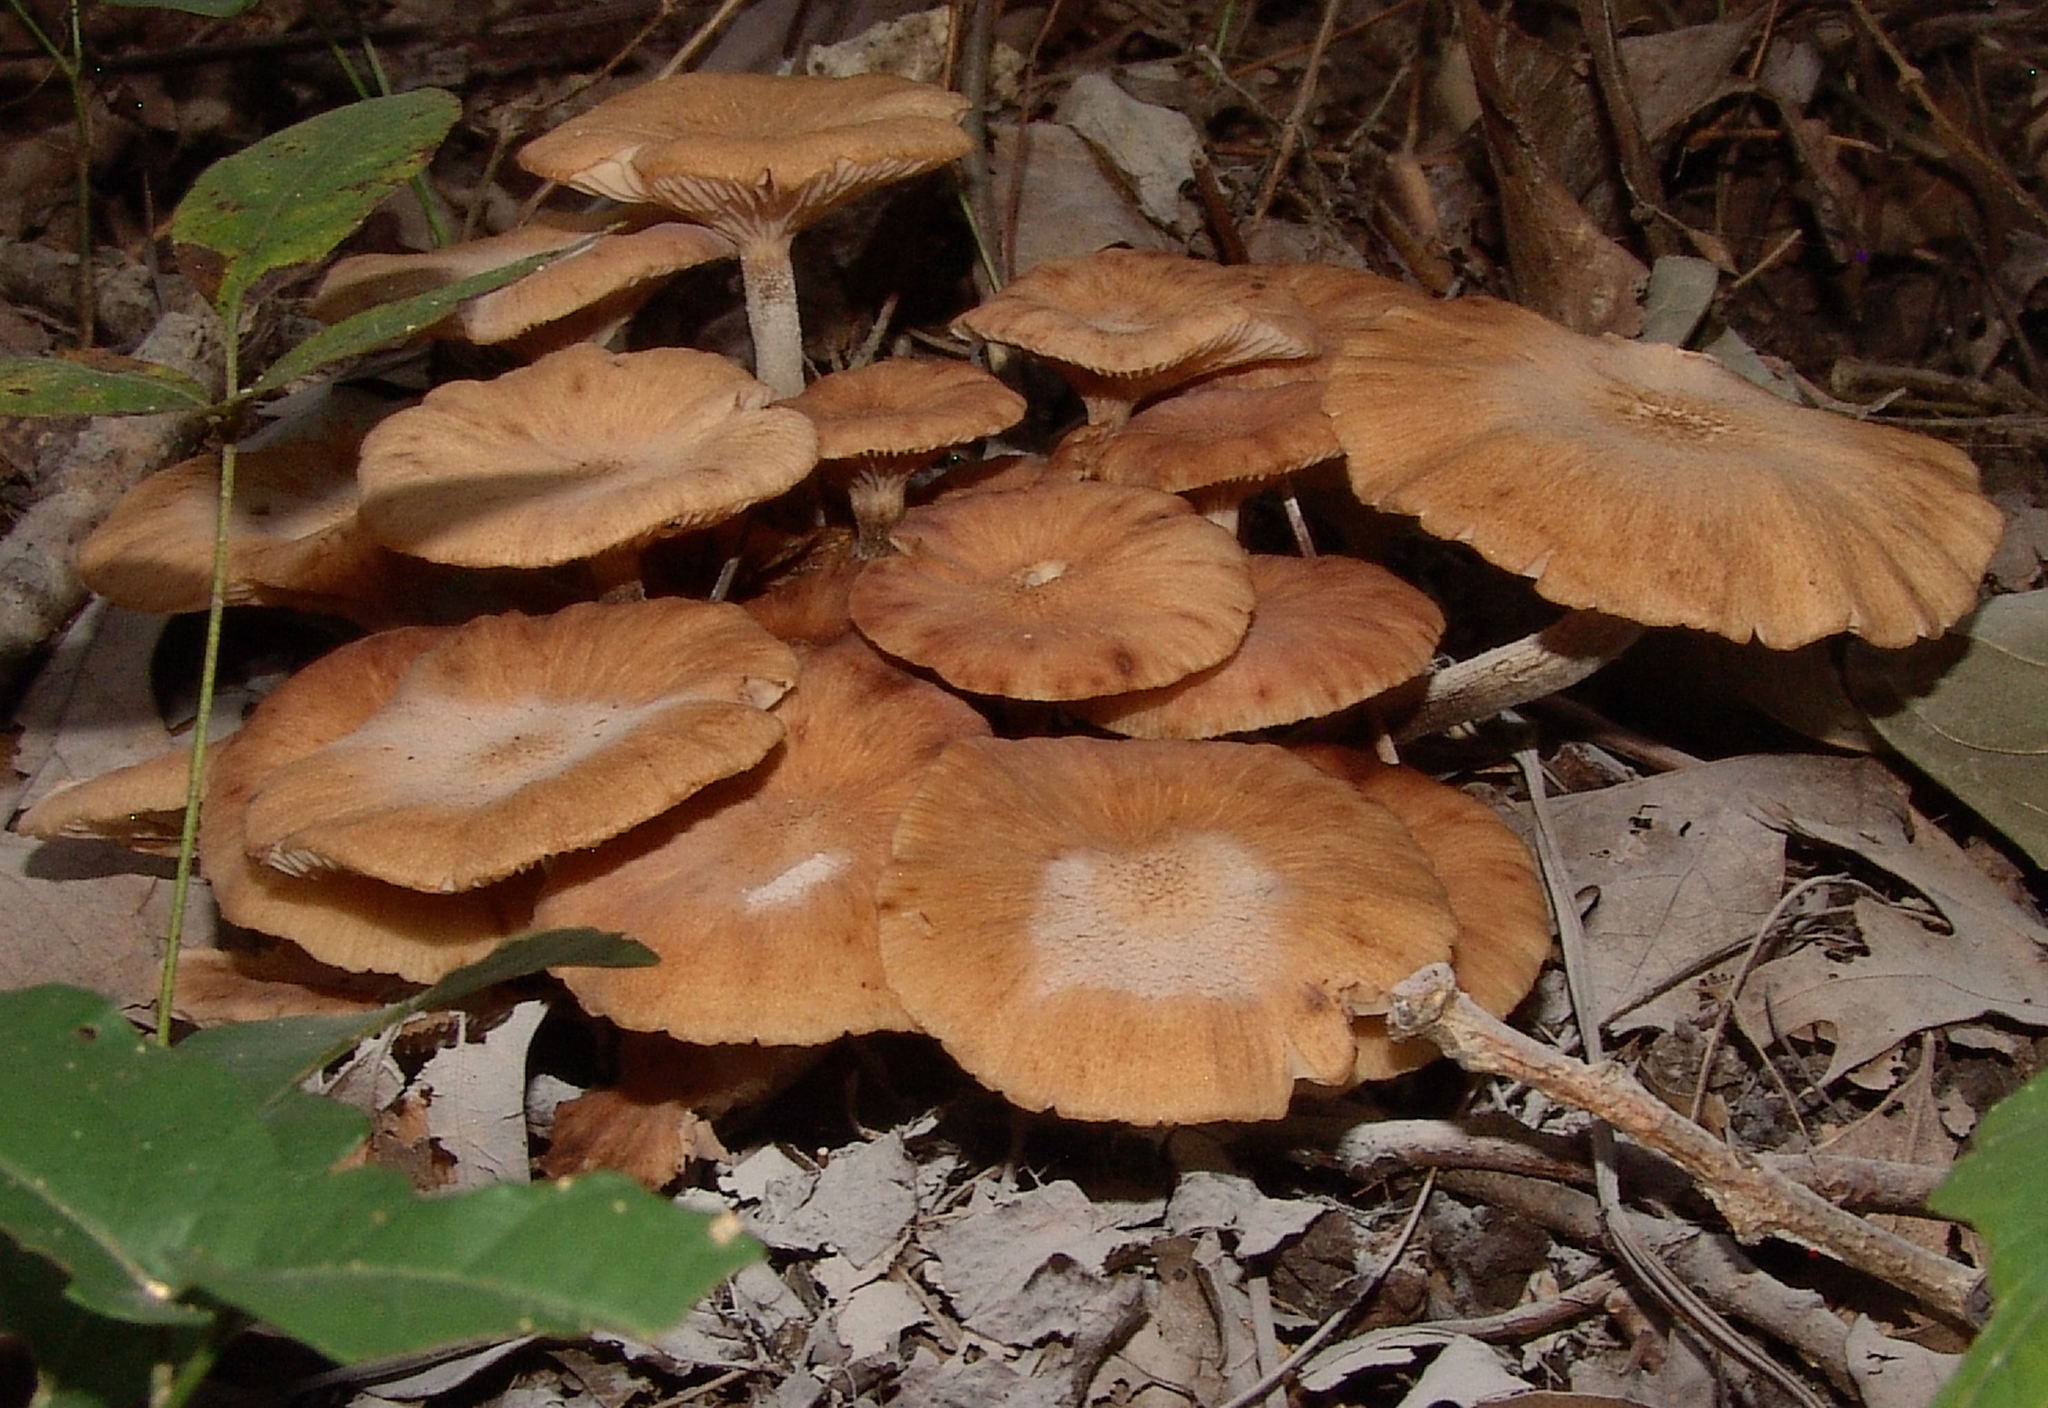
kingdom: Fungi
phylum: Basidiomycota
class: Agaricomycetes
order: Agaricales
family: Physalacriaceae
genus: Desarmillaria
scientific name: Desarmillaria caespitosa
